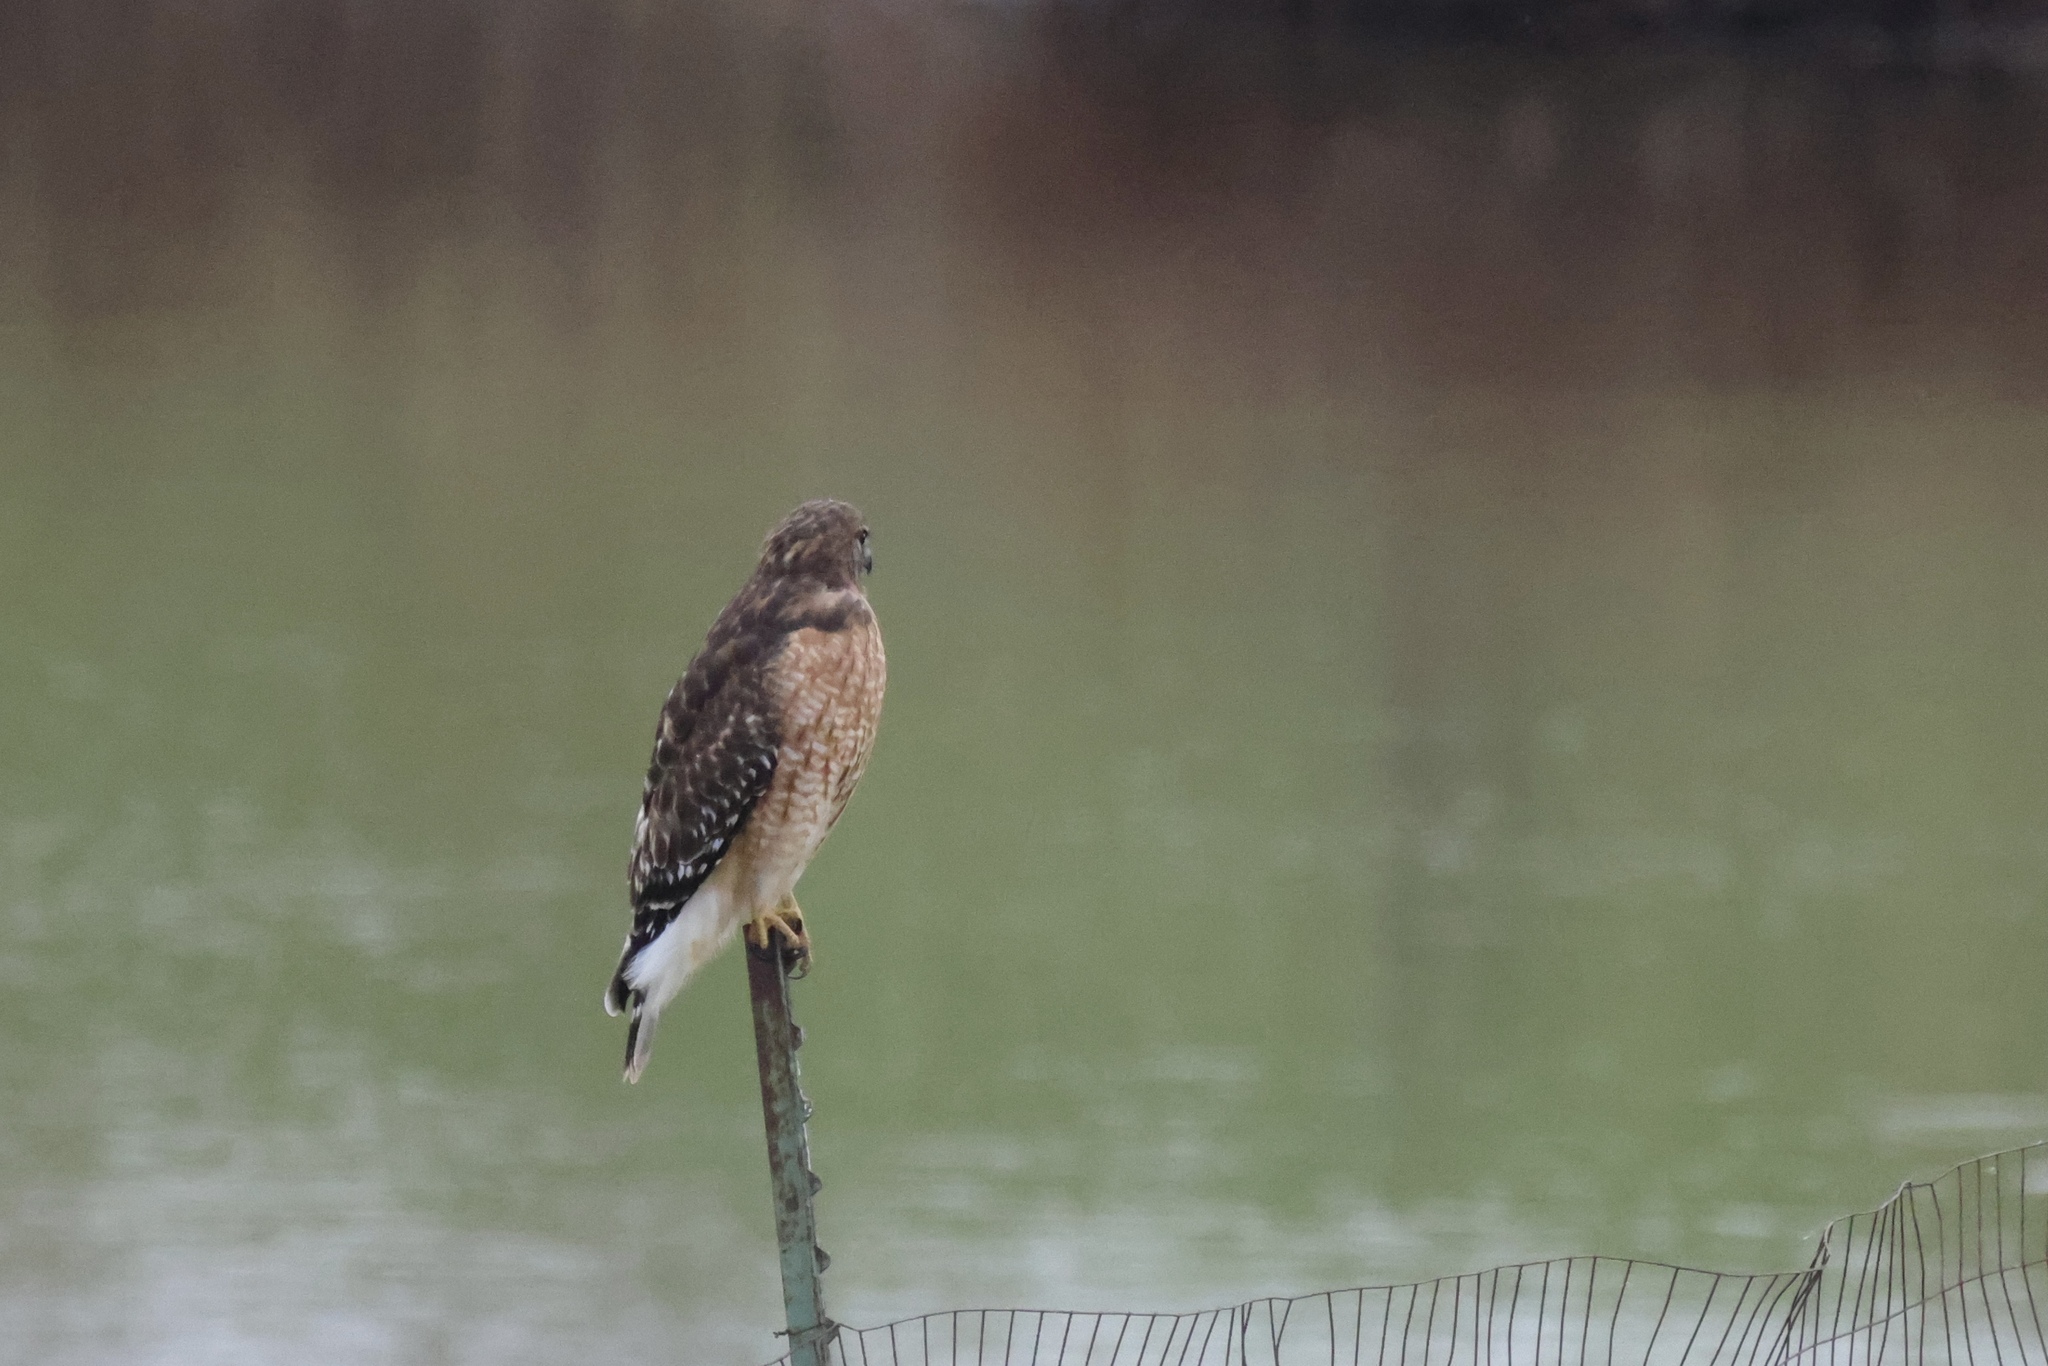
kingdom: Animalia
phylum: Chordata
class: Aves
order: Accipitriformes
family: Accipitridae
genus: Buteo
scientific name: Buteo lineatus
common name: Red-shouldered hawk
